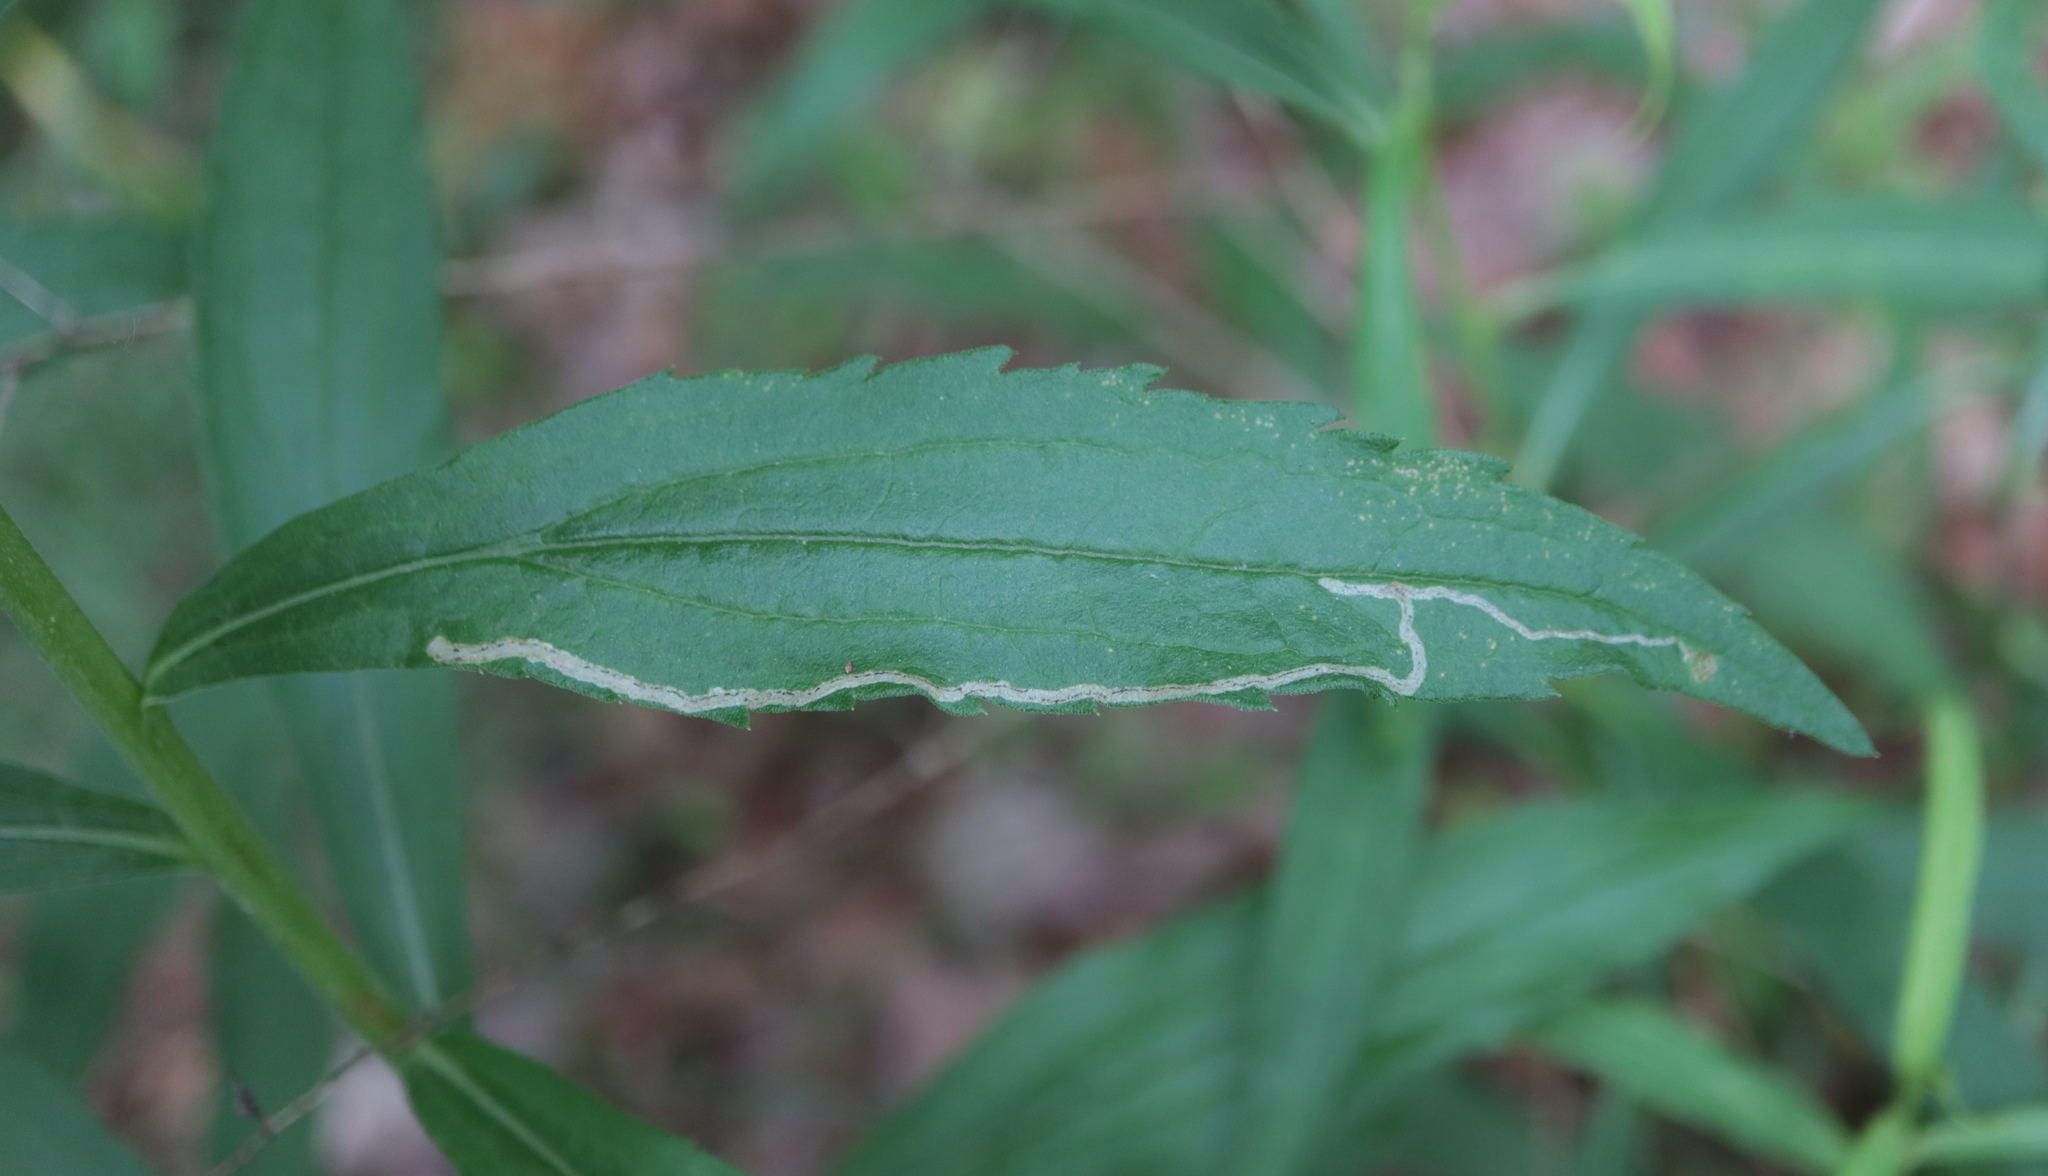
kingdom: Animalia
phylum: Arthropoda
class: Insecta
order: Diptera
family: Agromyzidae
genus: Liriomyza
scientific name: Liriomyza eupatorii
